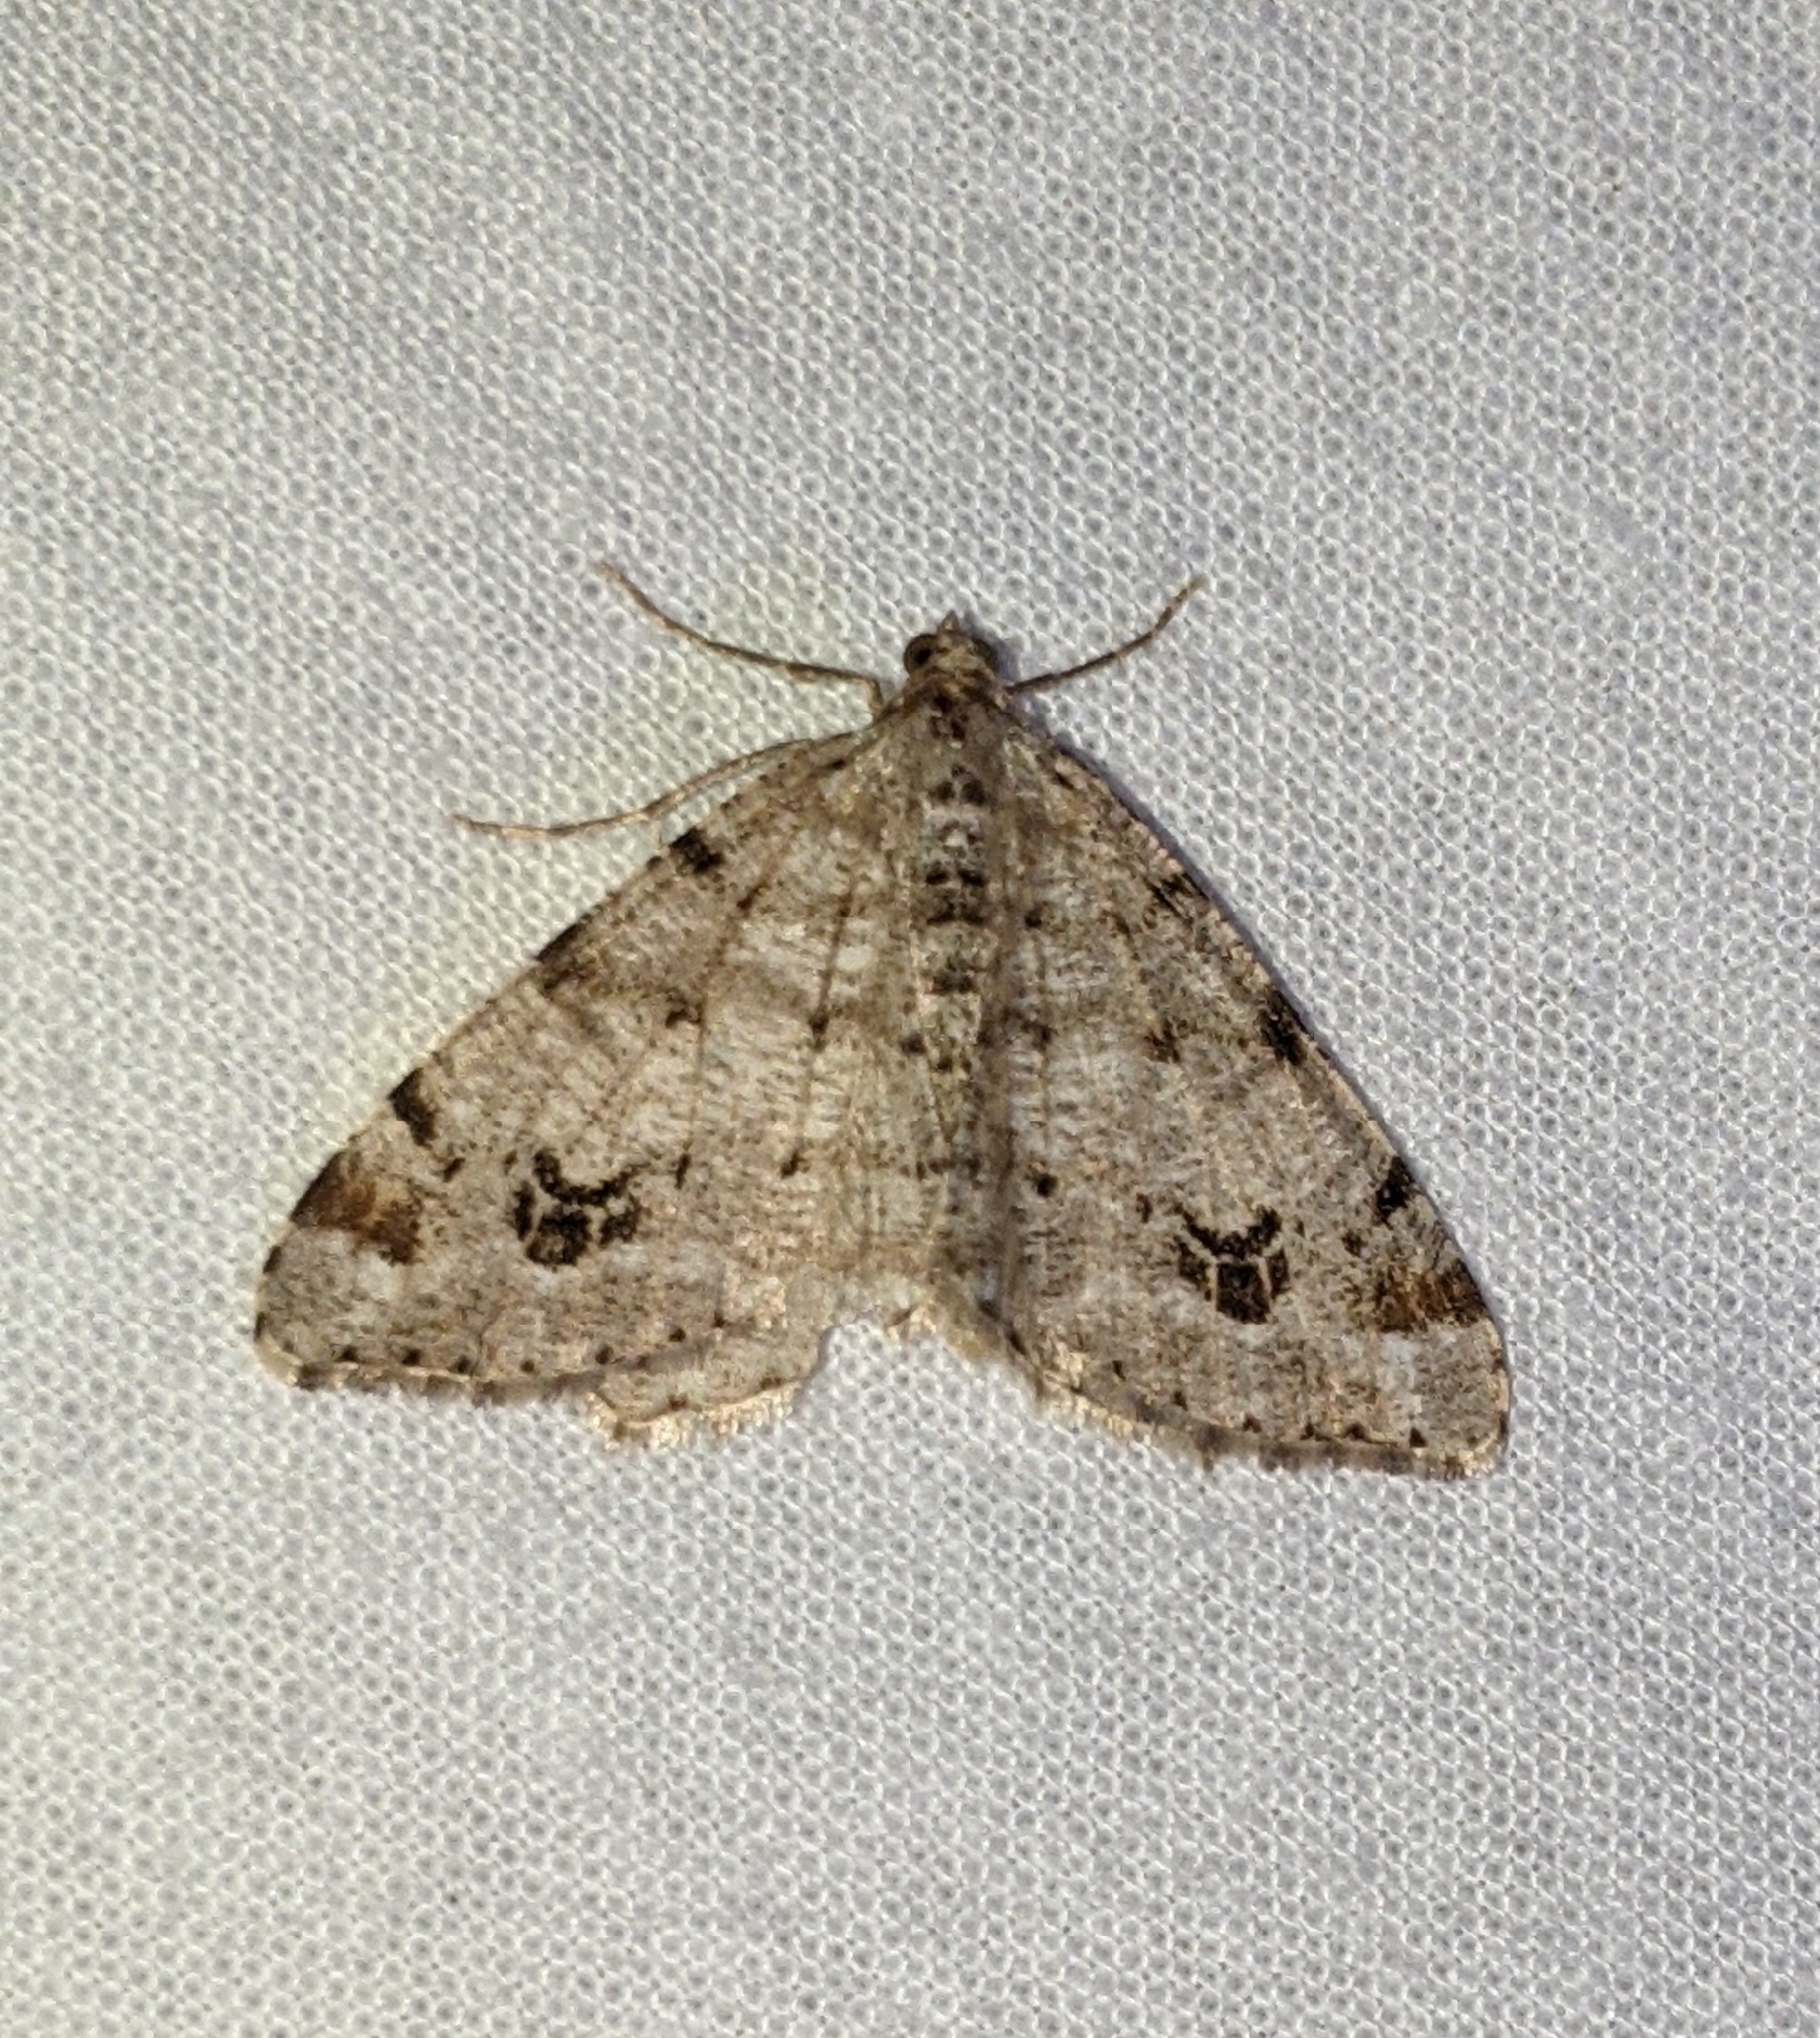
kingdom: Animalia
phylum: Arthropoda
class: Insecta
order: Lepidoptera
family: Geometridae
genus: Macaria
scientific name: Macaria signaria
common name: Dusky peacock
